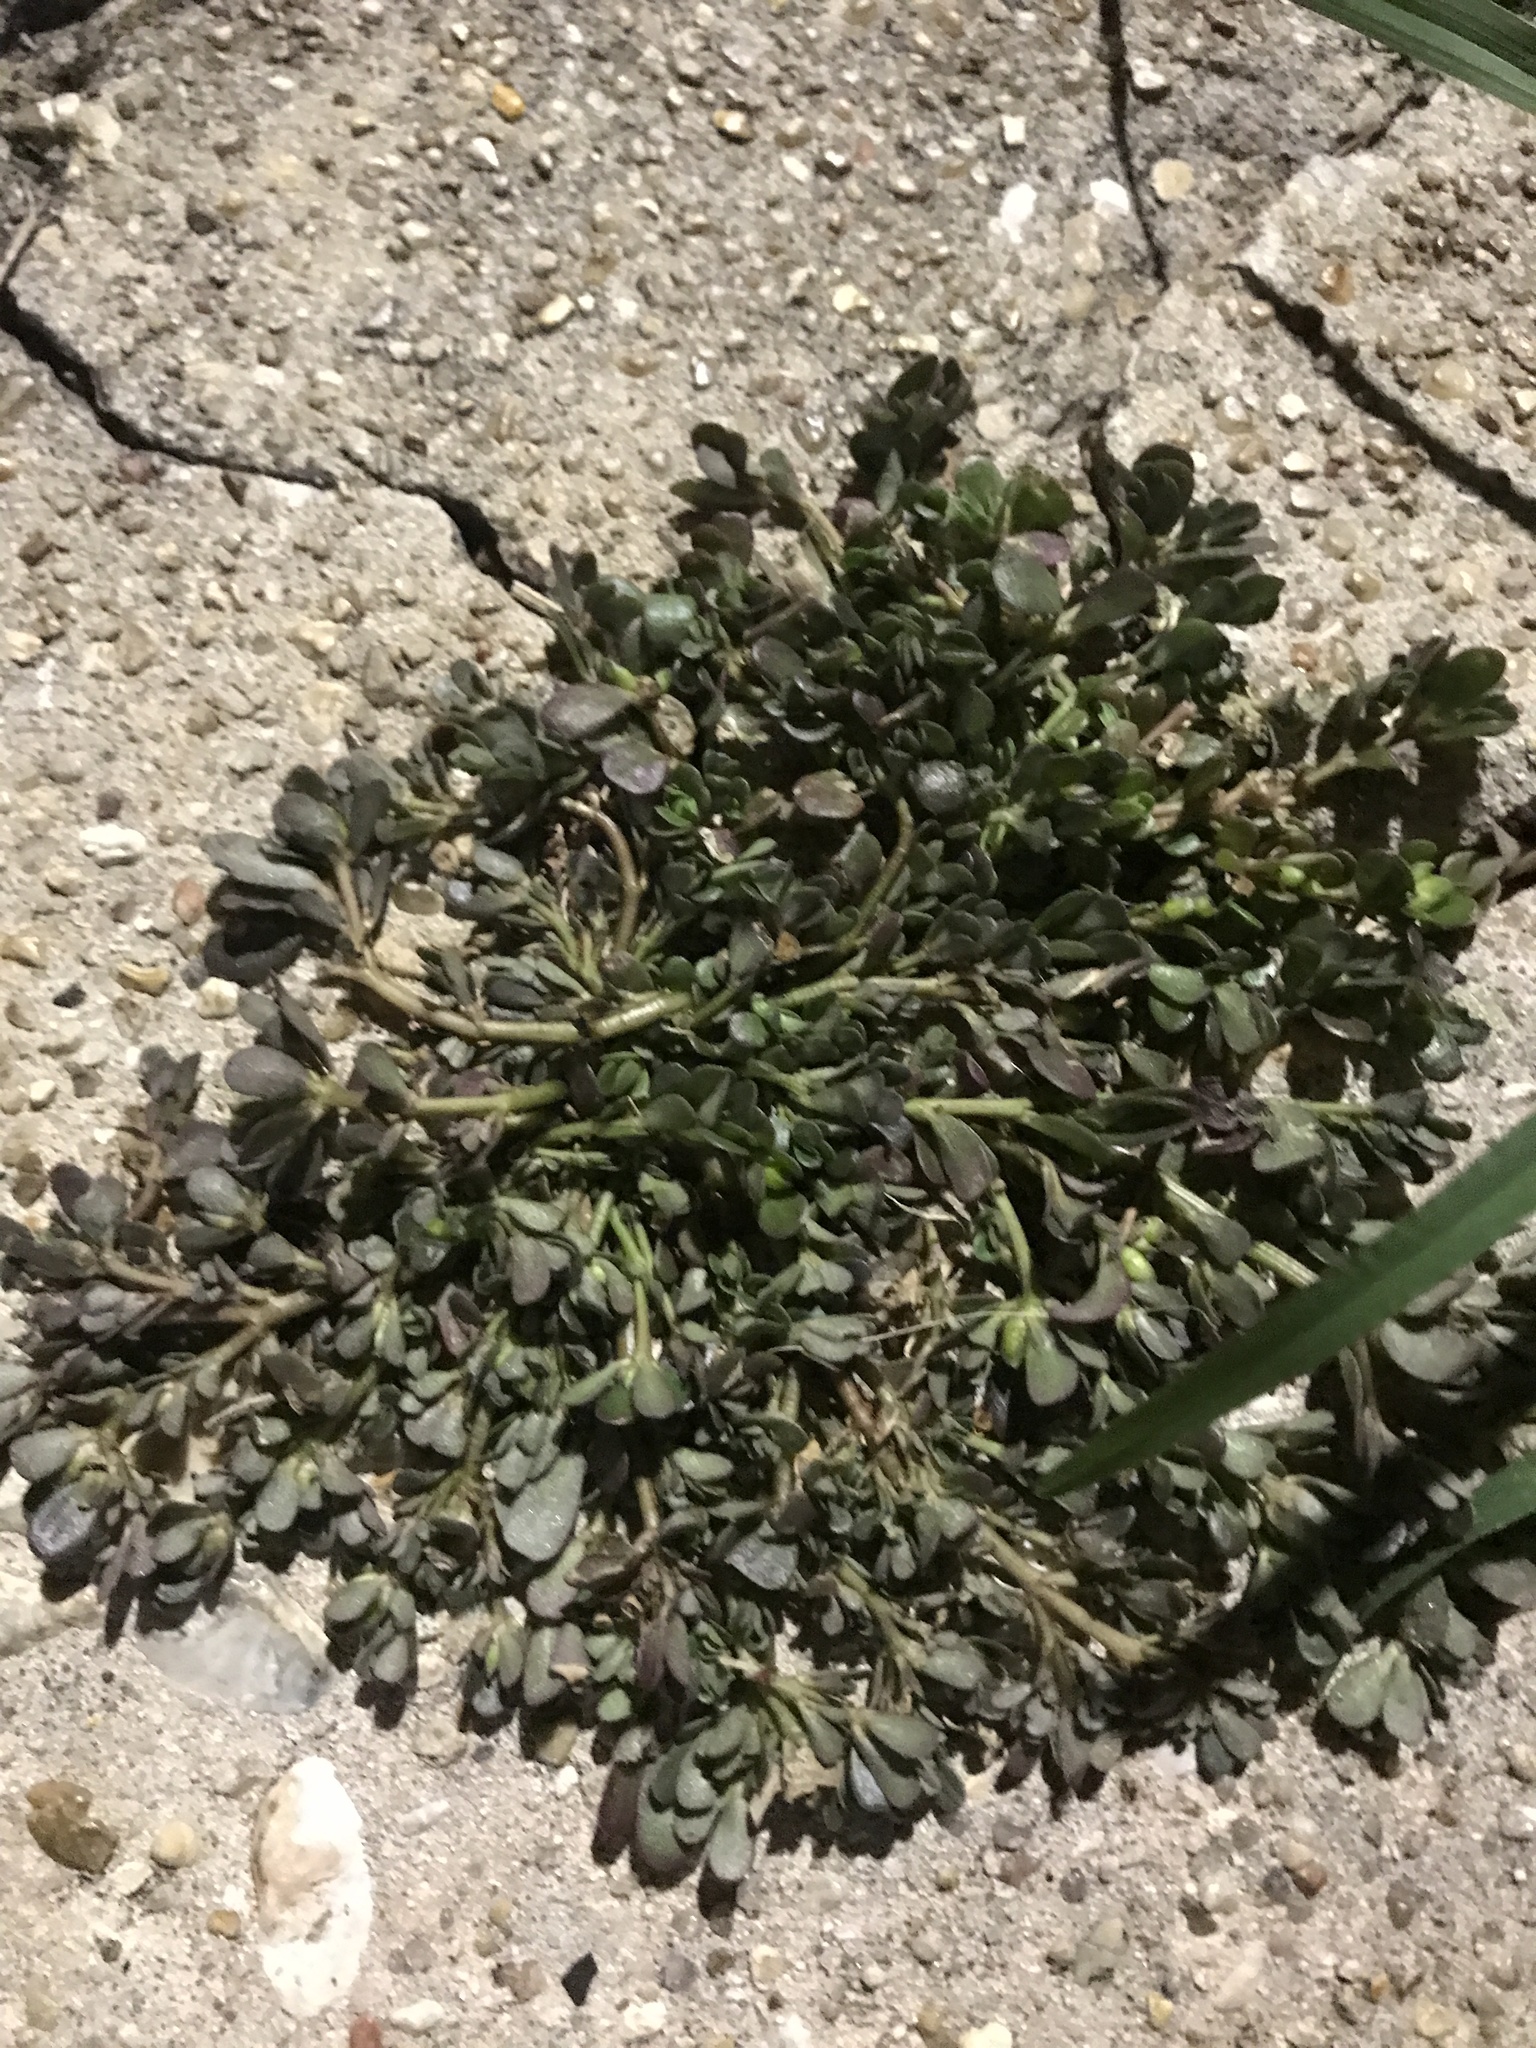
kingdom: Plantae
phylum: Tracheophyta
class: Magnoliopsida
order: Caryophyllales
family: Portulacaceae
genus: Portulaca
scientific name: Portulaca oleracea
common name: Common purslane
